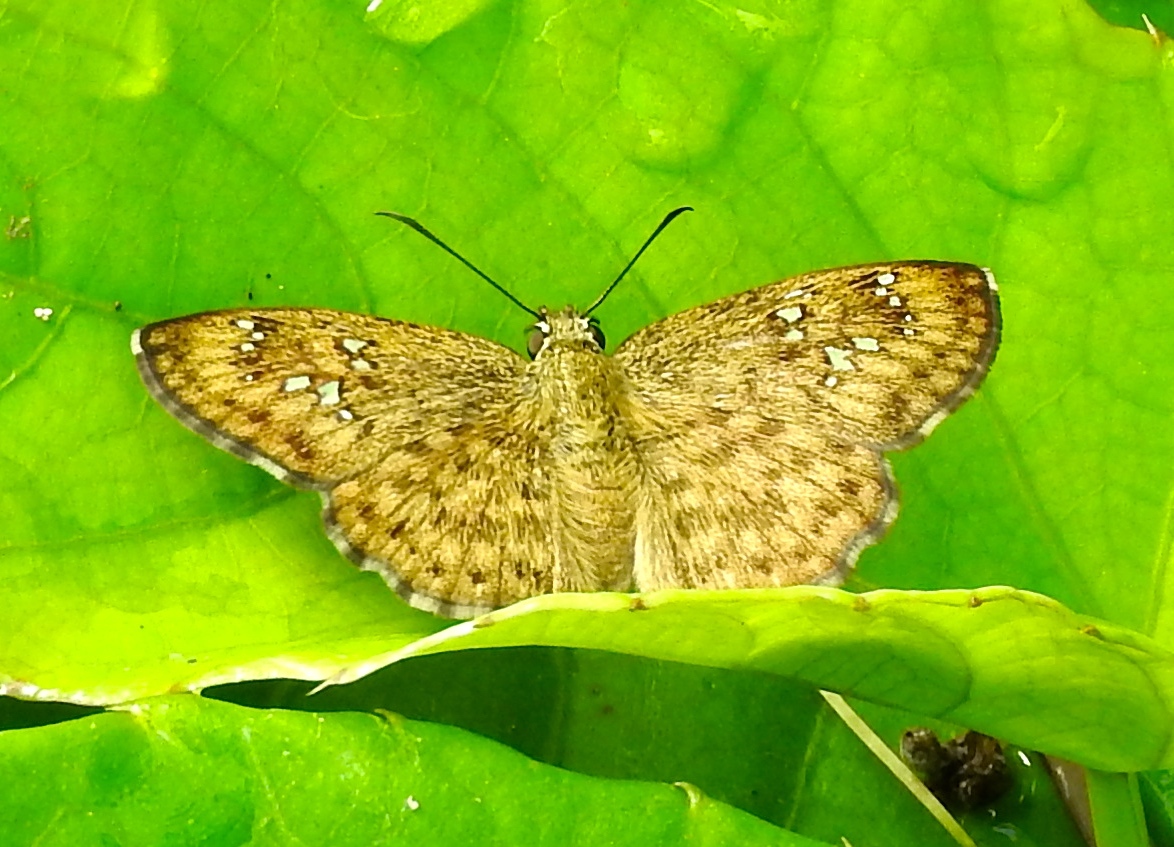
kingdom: Animalia
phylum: Arthropoda
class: Insecta
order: Lepidoptera
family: Hesperiidae
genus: Carrhenes
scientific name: Carrhenes
